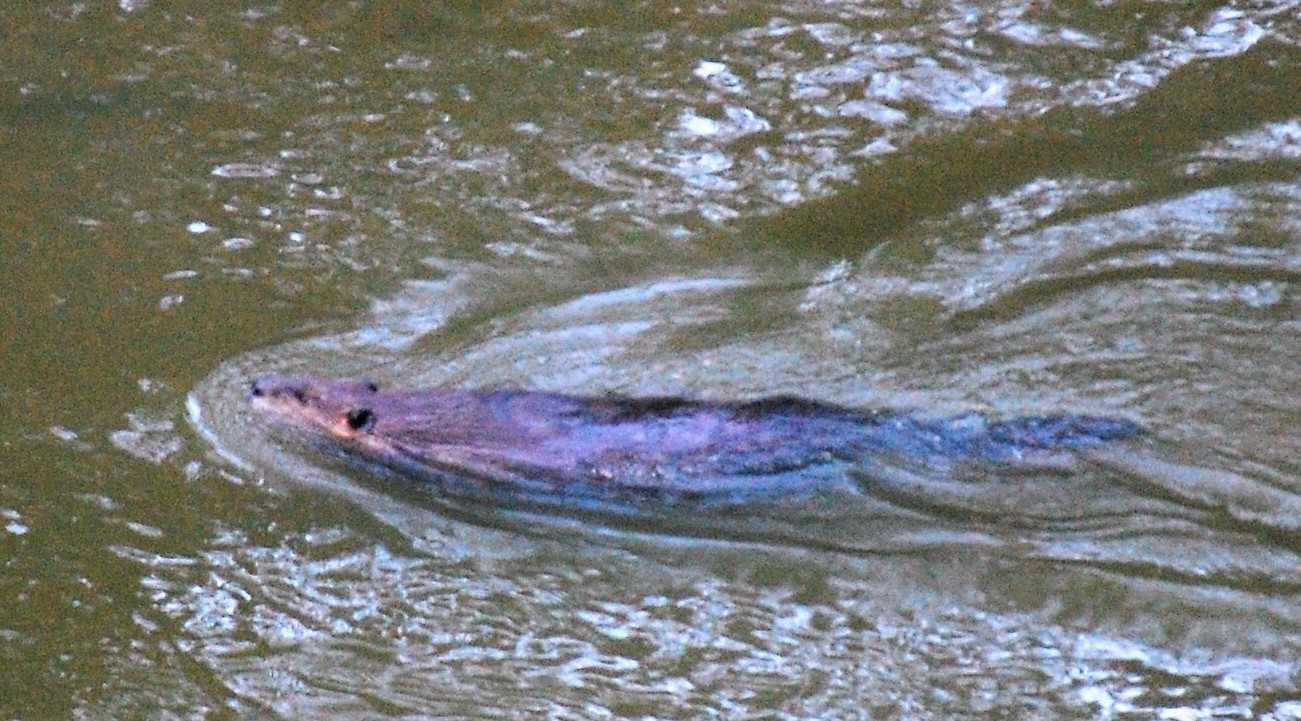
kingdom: Animalia
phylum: Chordata
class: Mammalia
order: Rodentia
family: Castoridae
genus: Castor
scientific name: Castor canadensis
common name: American beaver
